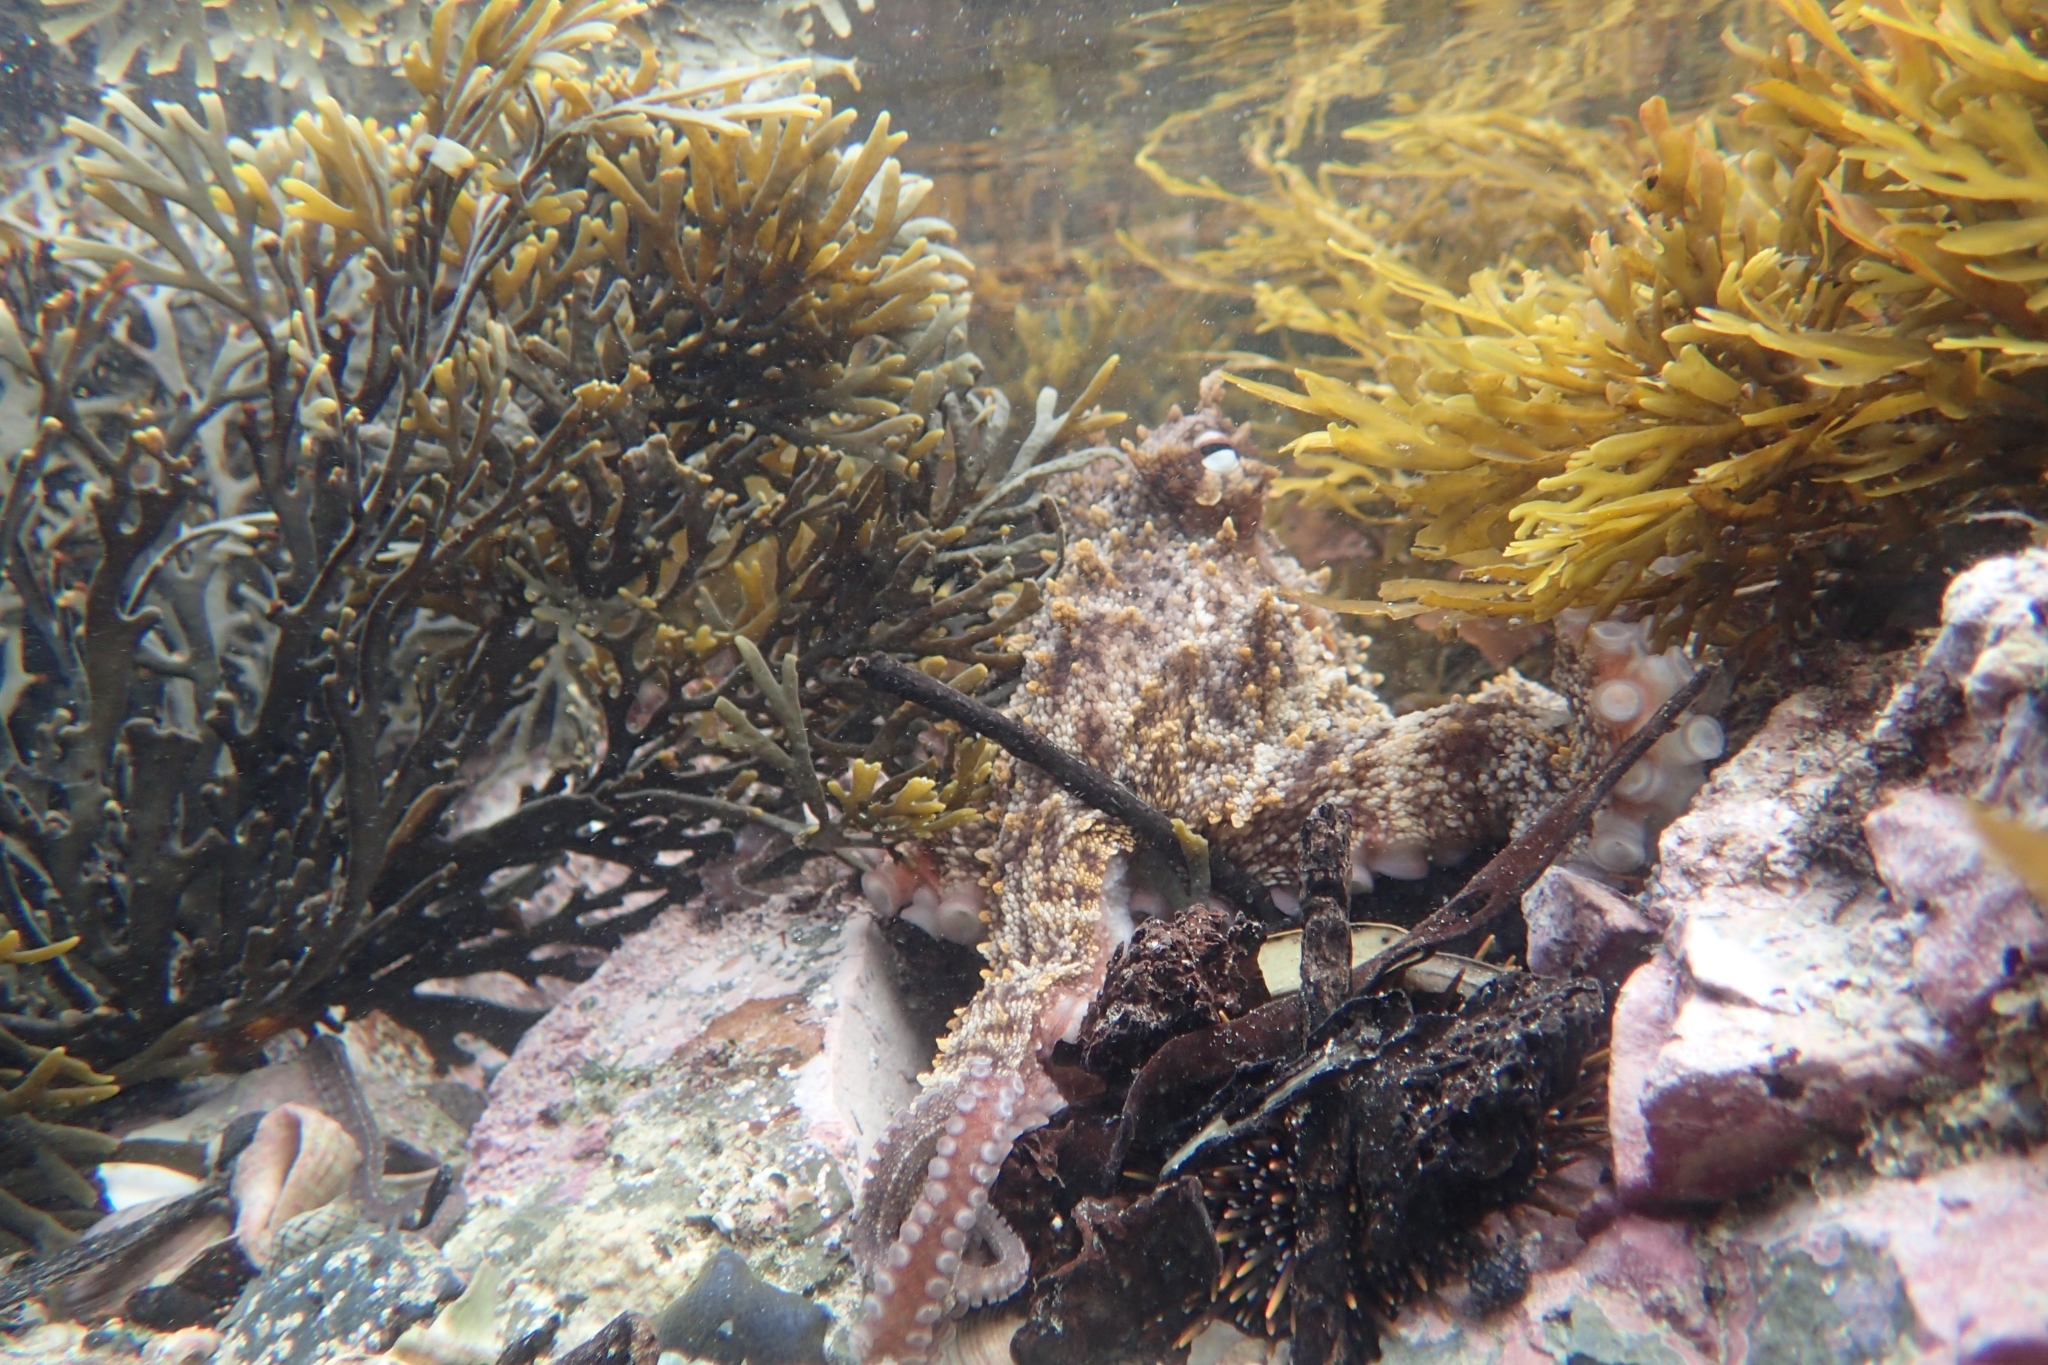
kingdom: Animalia
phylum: Mollusca
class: Cephalopoda
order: Octopoda
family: Octopodidae
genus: Octopus
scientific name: Octopus tetricus
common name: Sydney octopus
